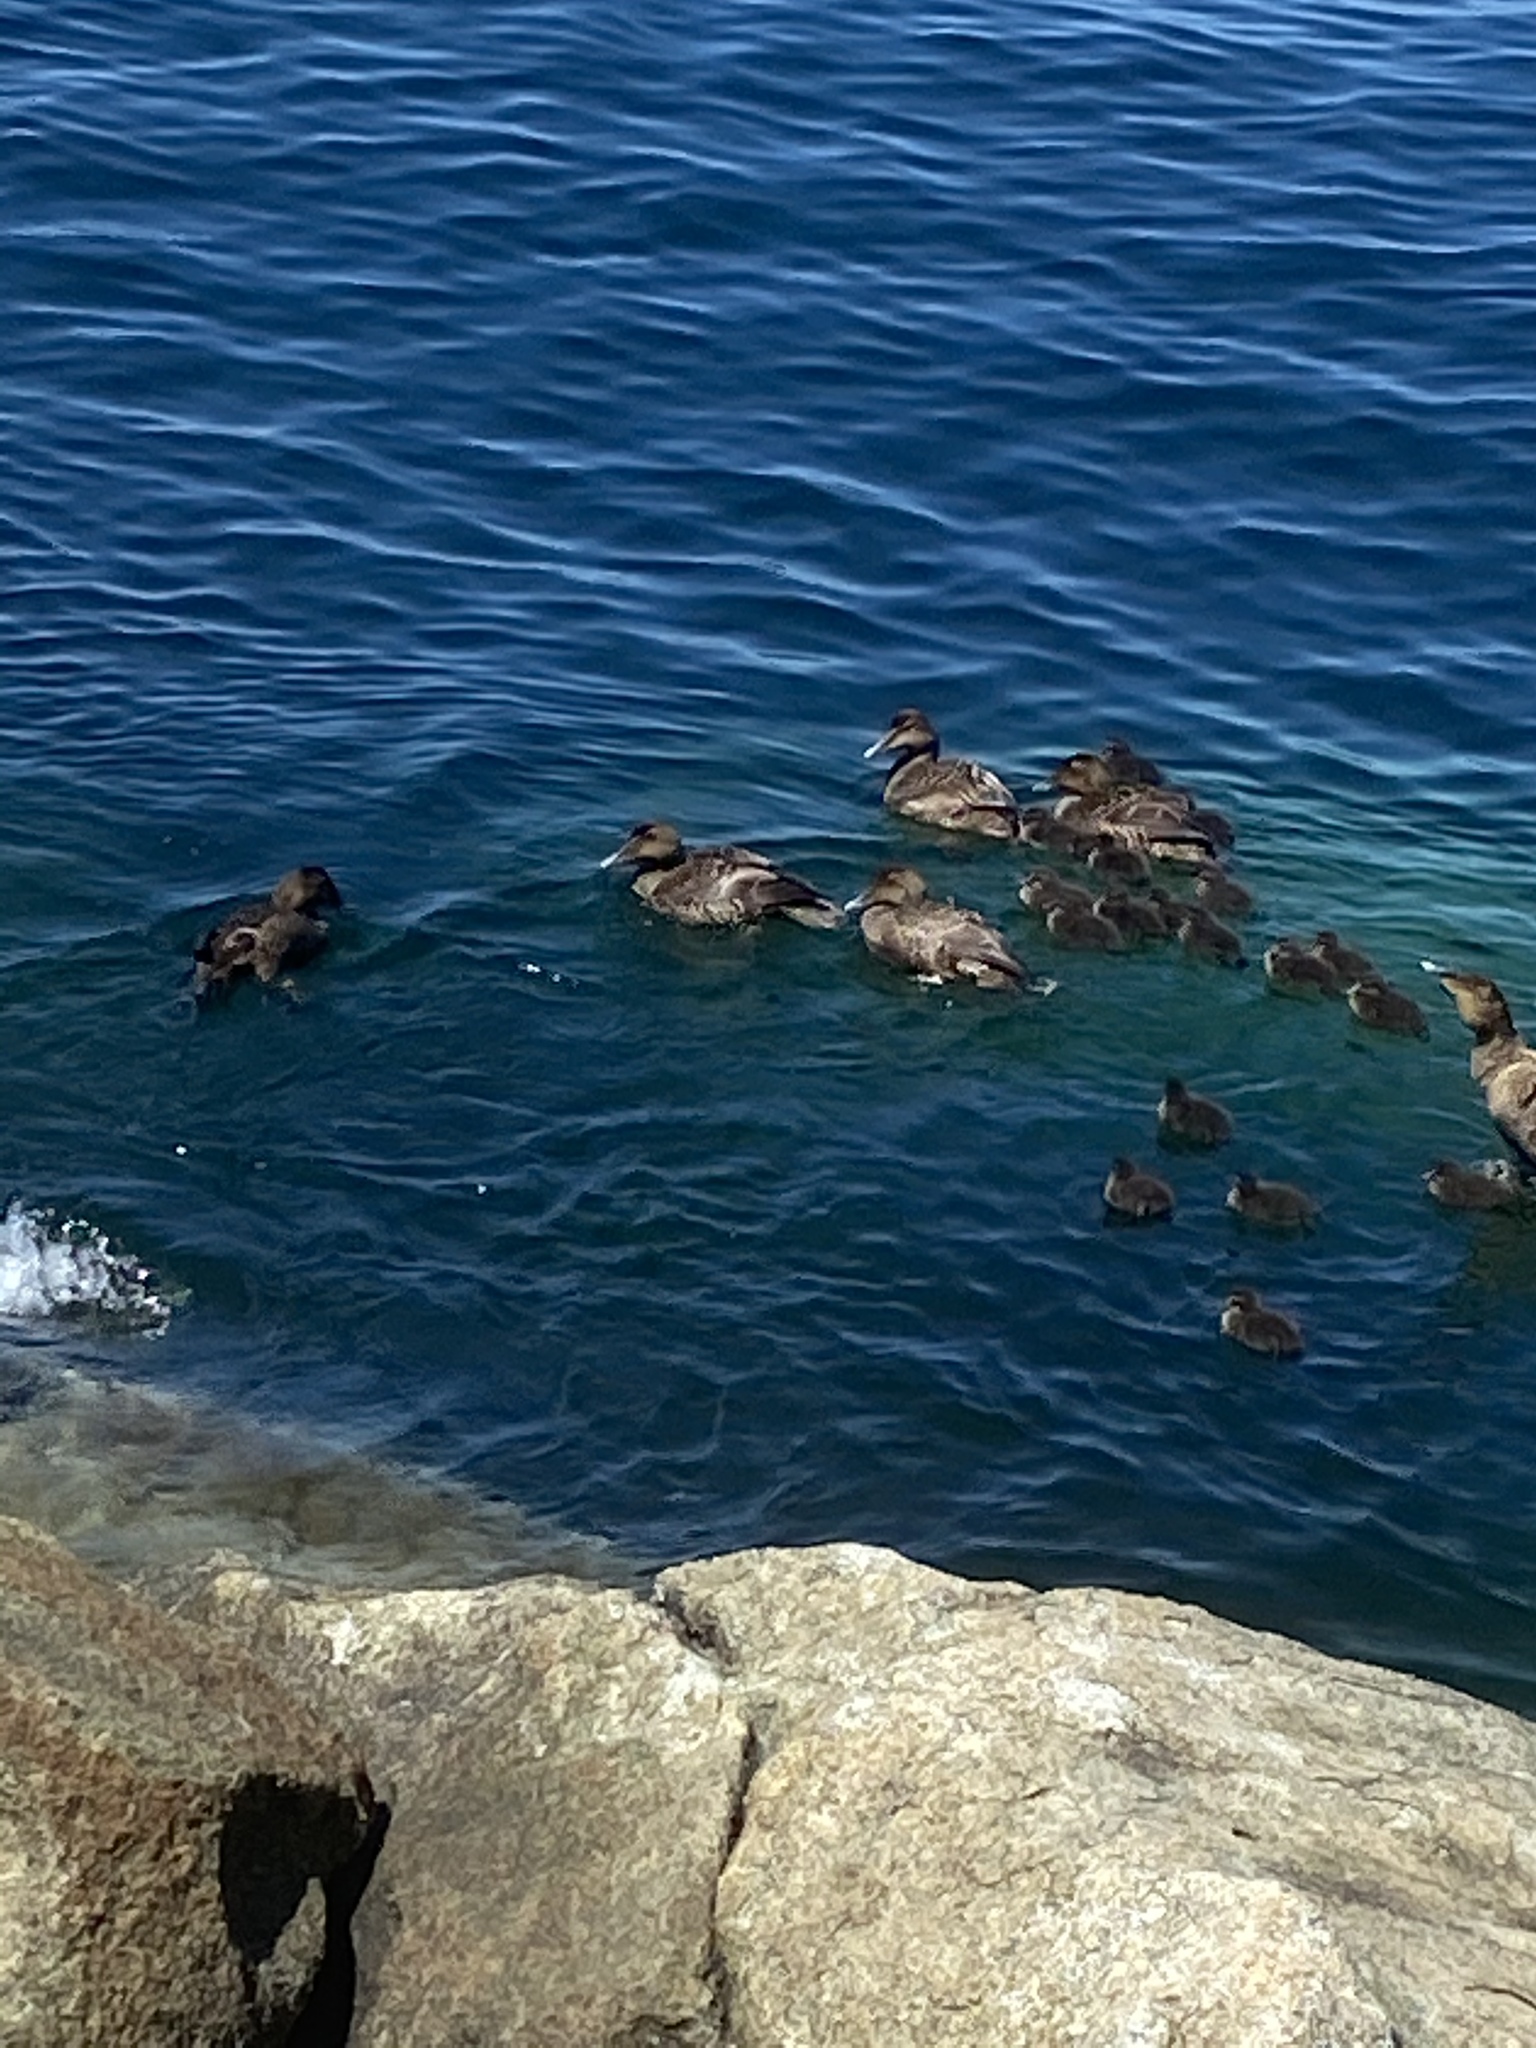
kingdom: Animalia
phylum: Chordata
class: Aves
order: Anseriformes
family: Anatidae
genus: Somateria
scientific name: Somateria mollissima
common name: Common eider
